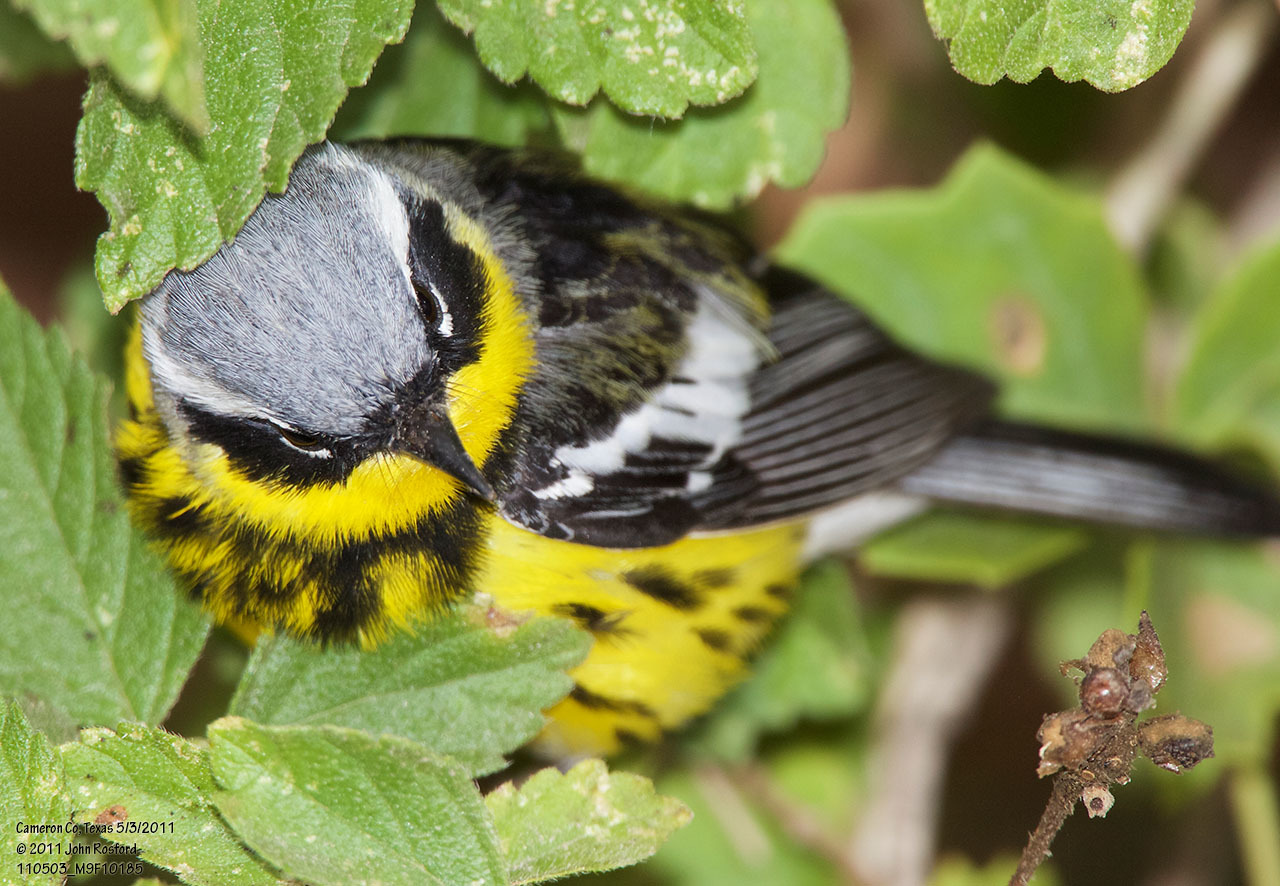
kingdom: Animalia
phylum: Chordata
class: Aves
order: Passeriformes
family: Parulidae
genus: Setophaga
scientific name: Setophaga magnolia
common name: Magnolia warbler
